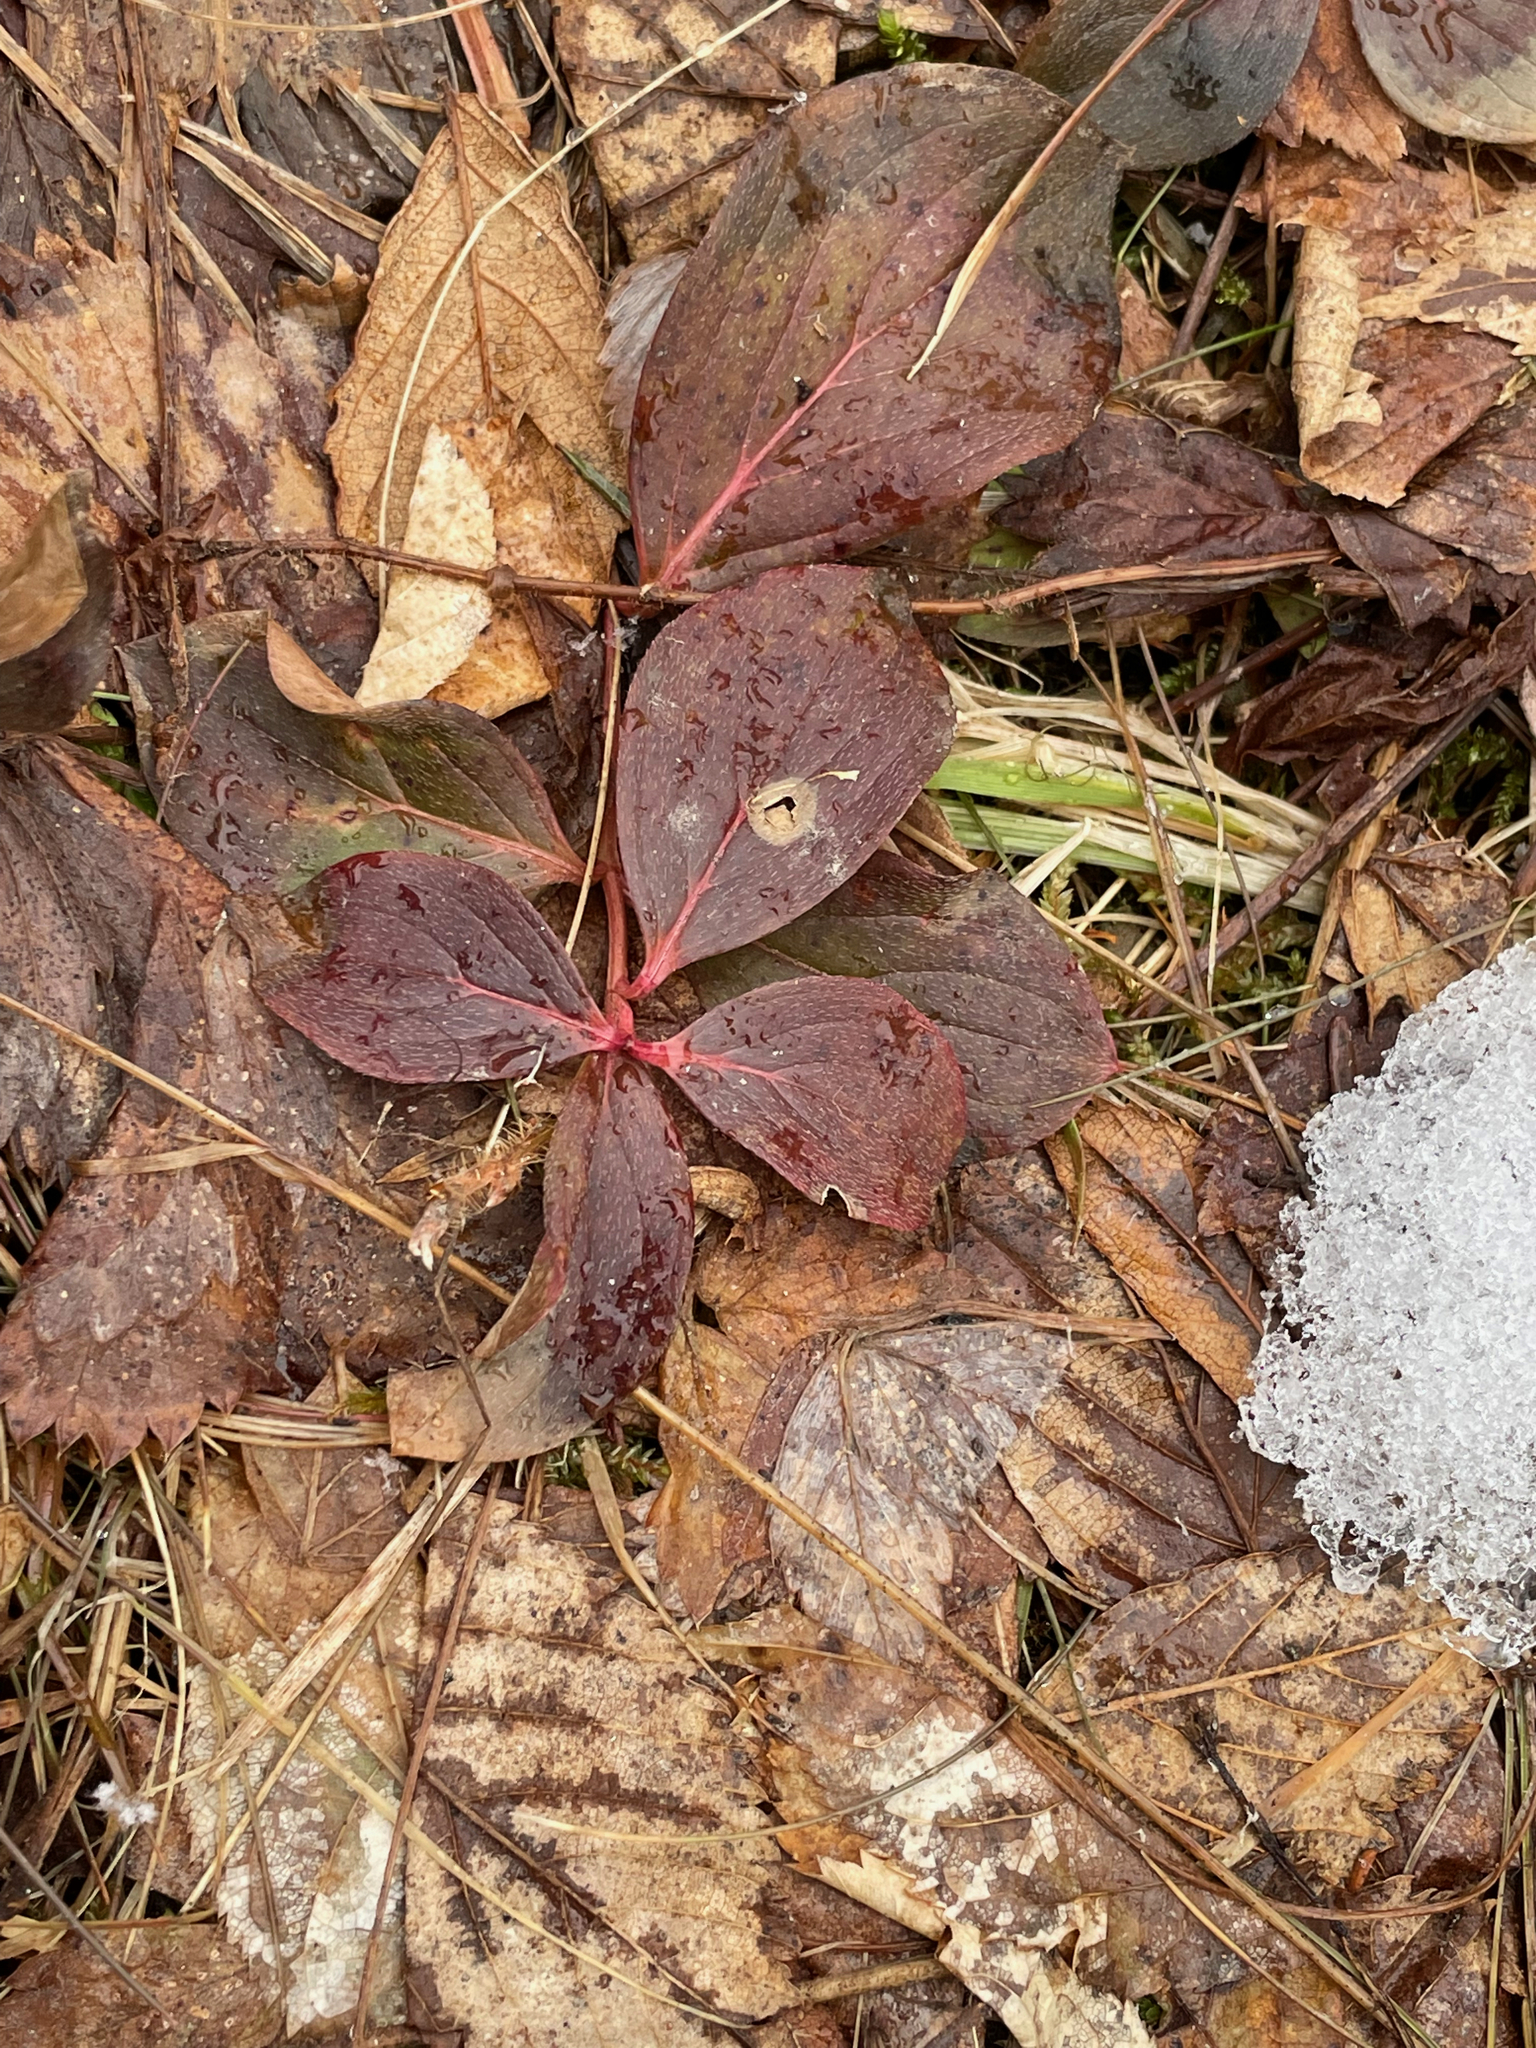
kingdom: Plantae
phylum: Tracheophyta
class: Magnoliopsida
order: Cornales
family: Cornaceae
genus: Cornus
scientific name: Cornus canadensis
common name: Creeping dogwood
